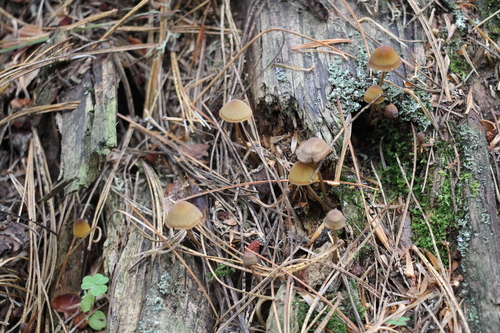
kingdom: Fungi
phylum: Basidiomycota
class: Agaricomycetes
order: Agaricales
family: Mycenaceae
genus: Mycena
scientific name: Mycena viridimarginata
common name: Olive edge bonnet
